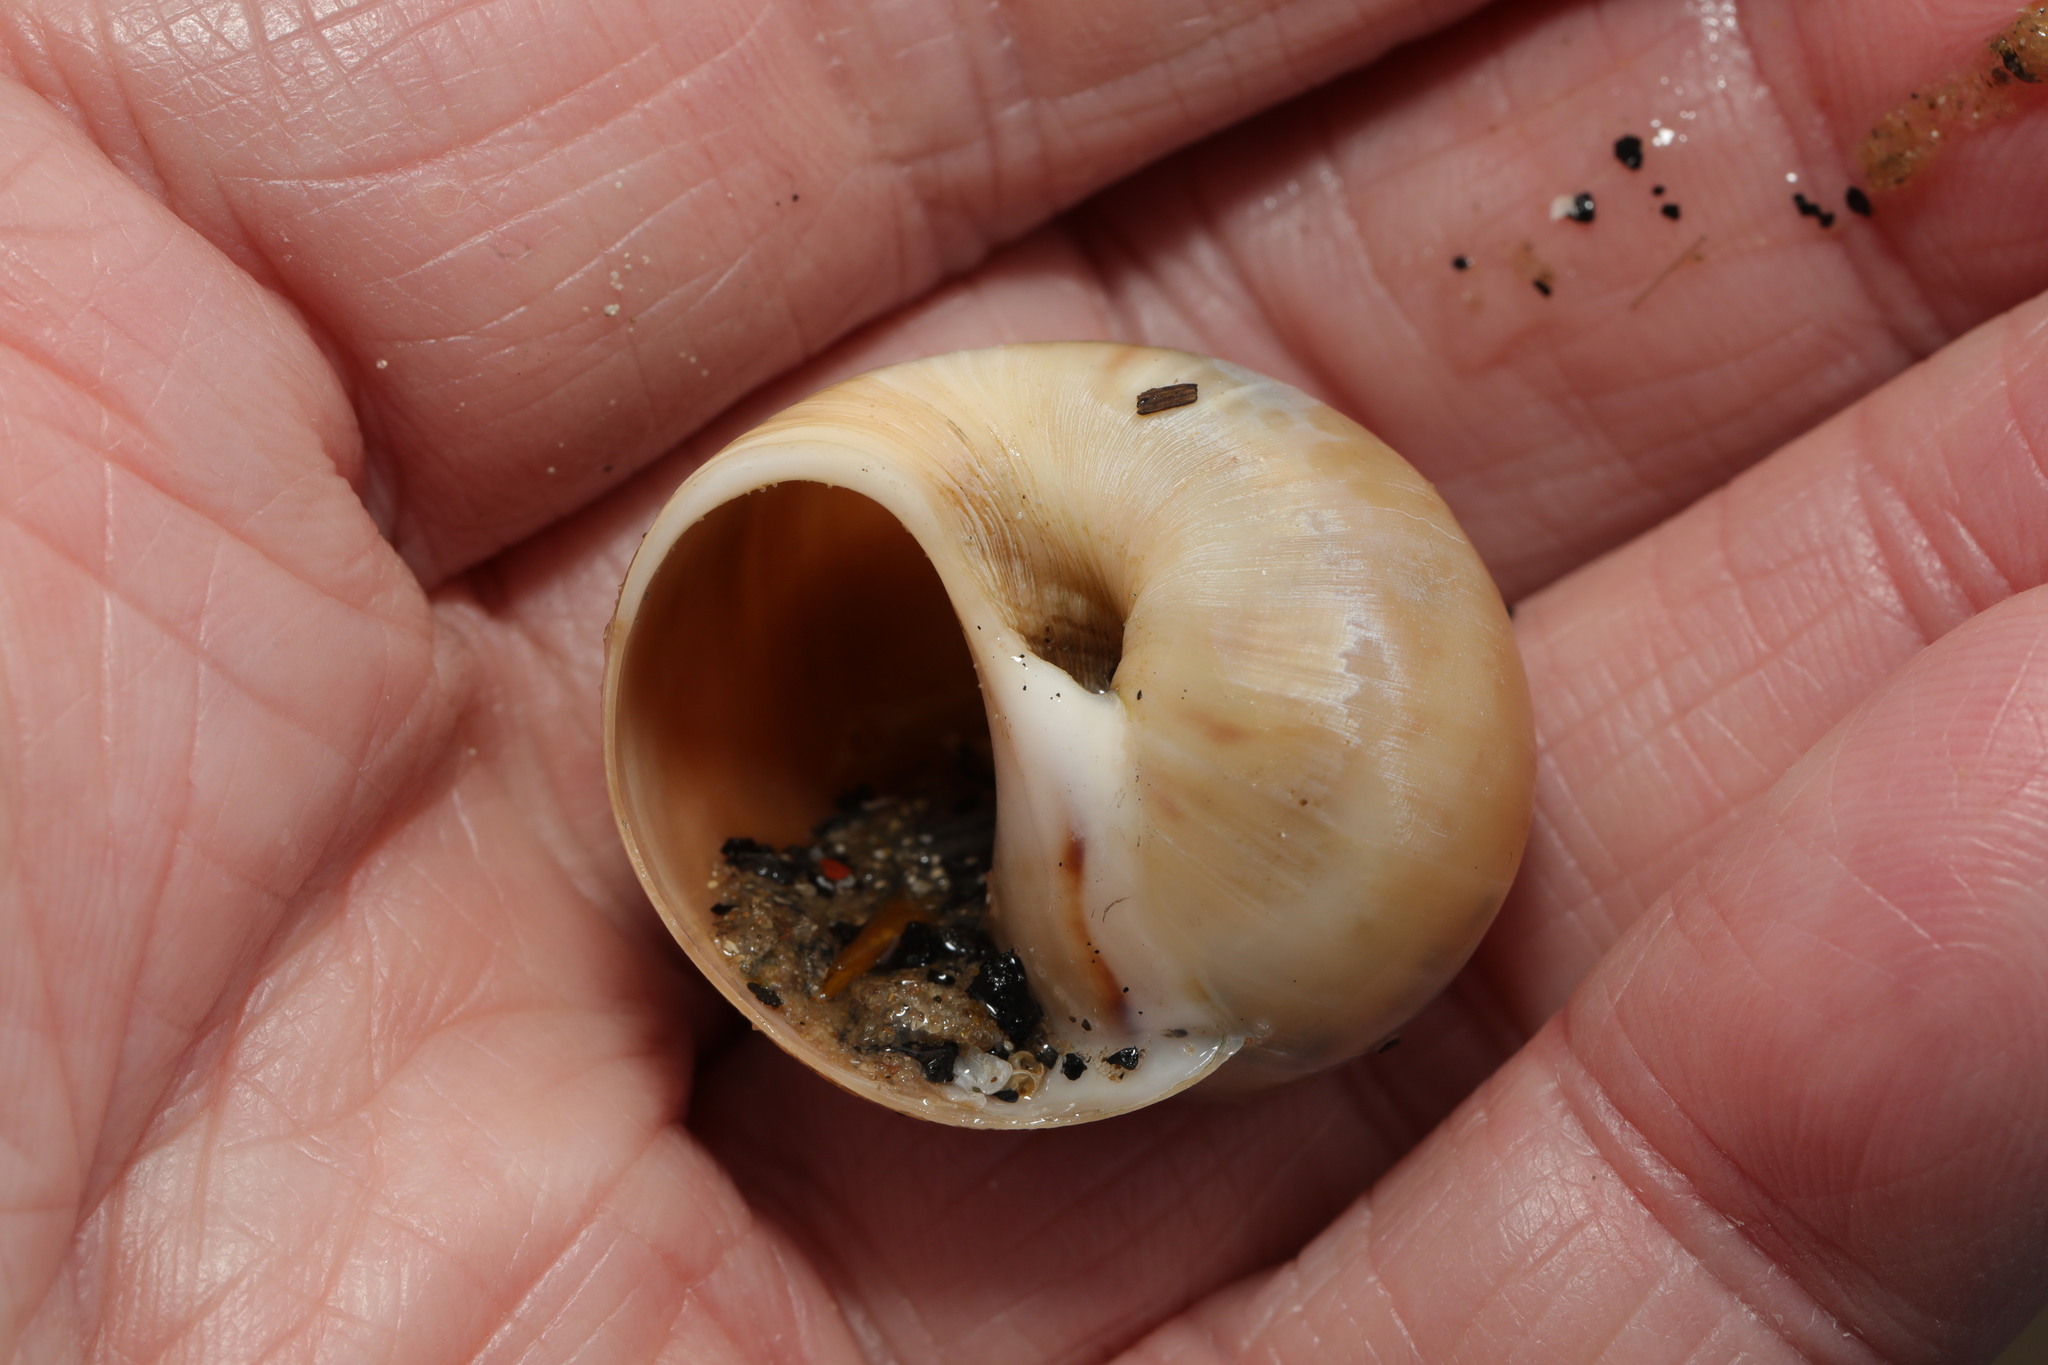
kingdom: Animalia
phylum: Mollusca
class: Gastropoda
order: Littorinimorpha
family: Naticidae
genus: Euspira
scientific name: Euspira catena
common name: Necklace shell
